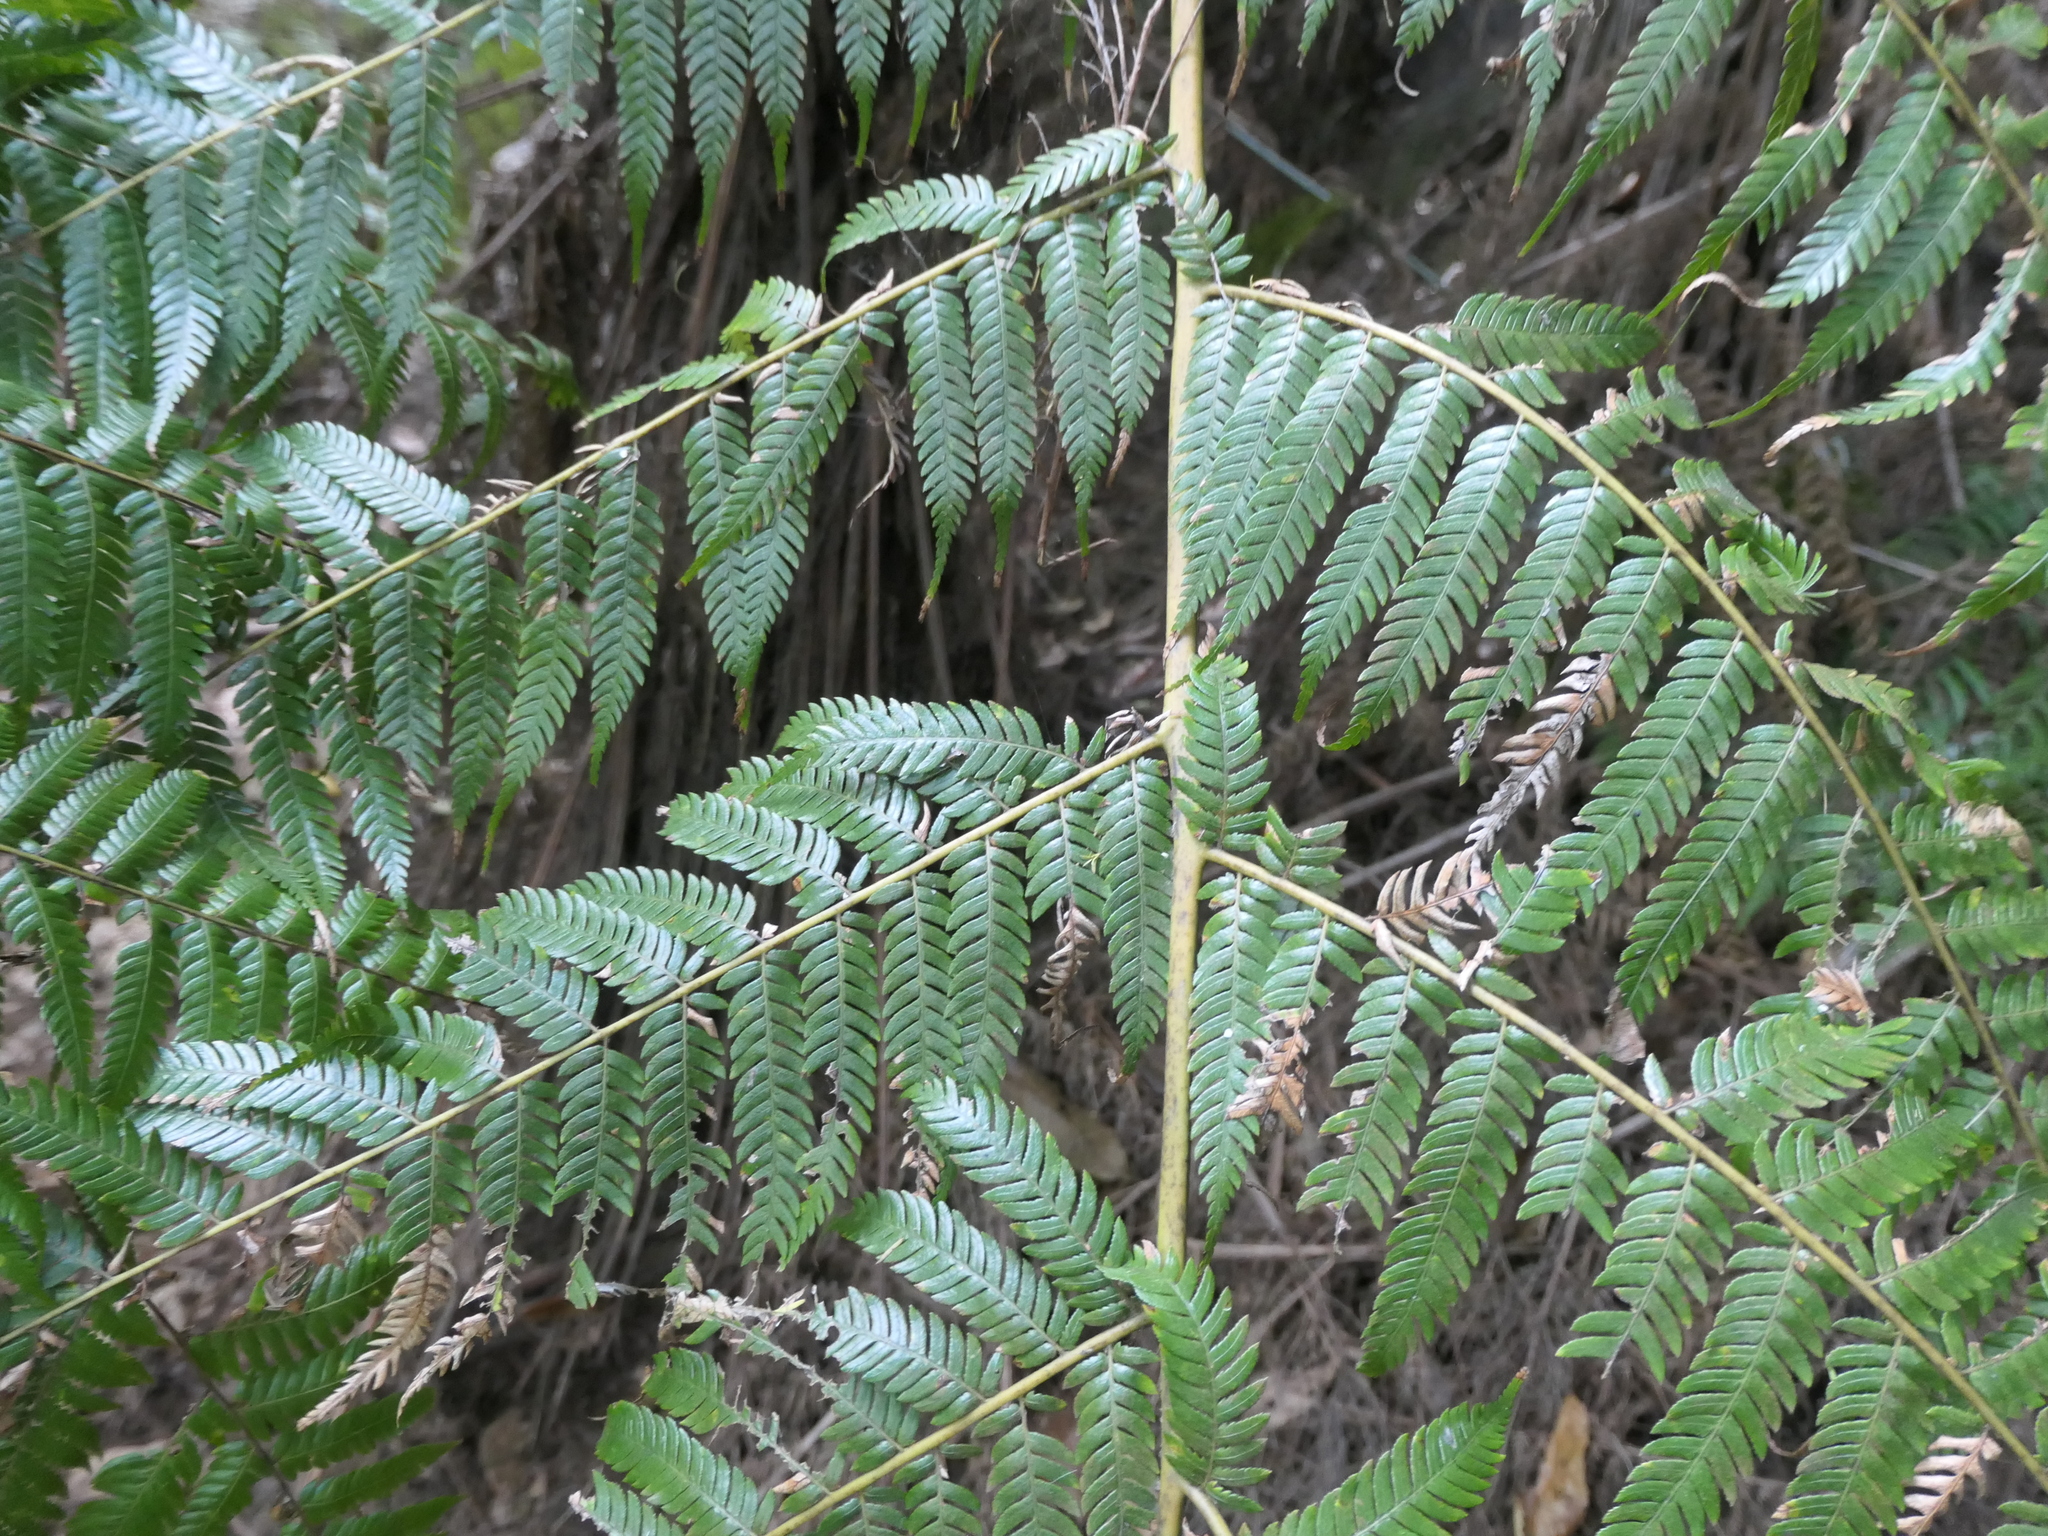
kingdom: Plantae
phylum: Tracheophyta
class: Polypodiopsida
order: Cyatheales
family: Cyatheaceae
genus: Alsophila
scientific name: Alsophila dealbata
